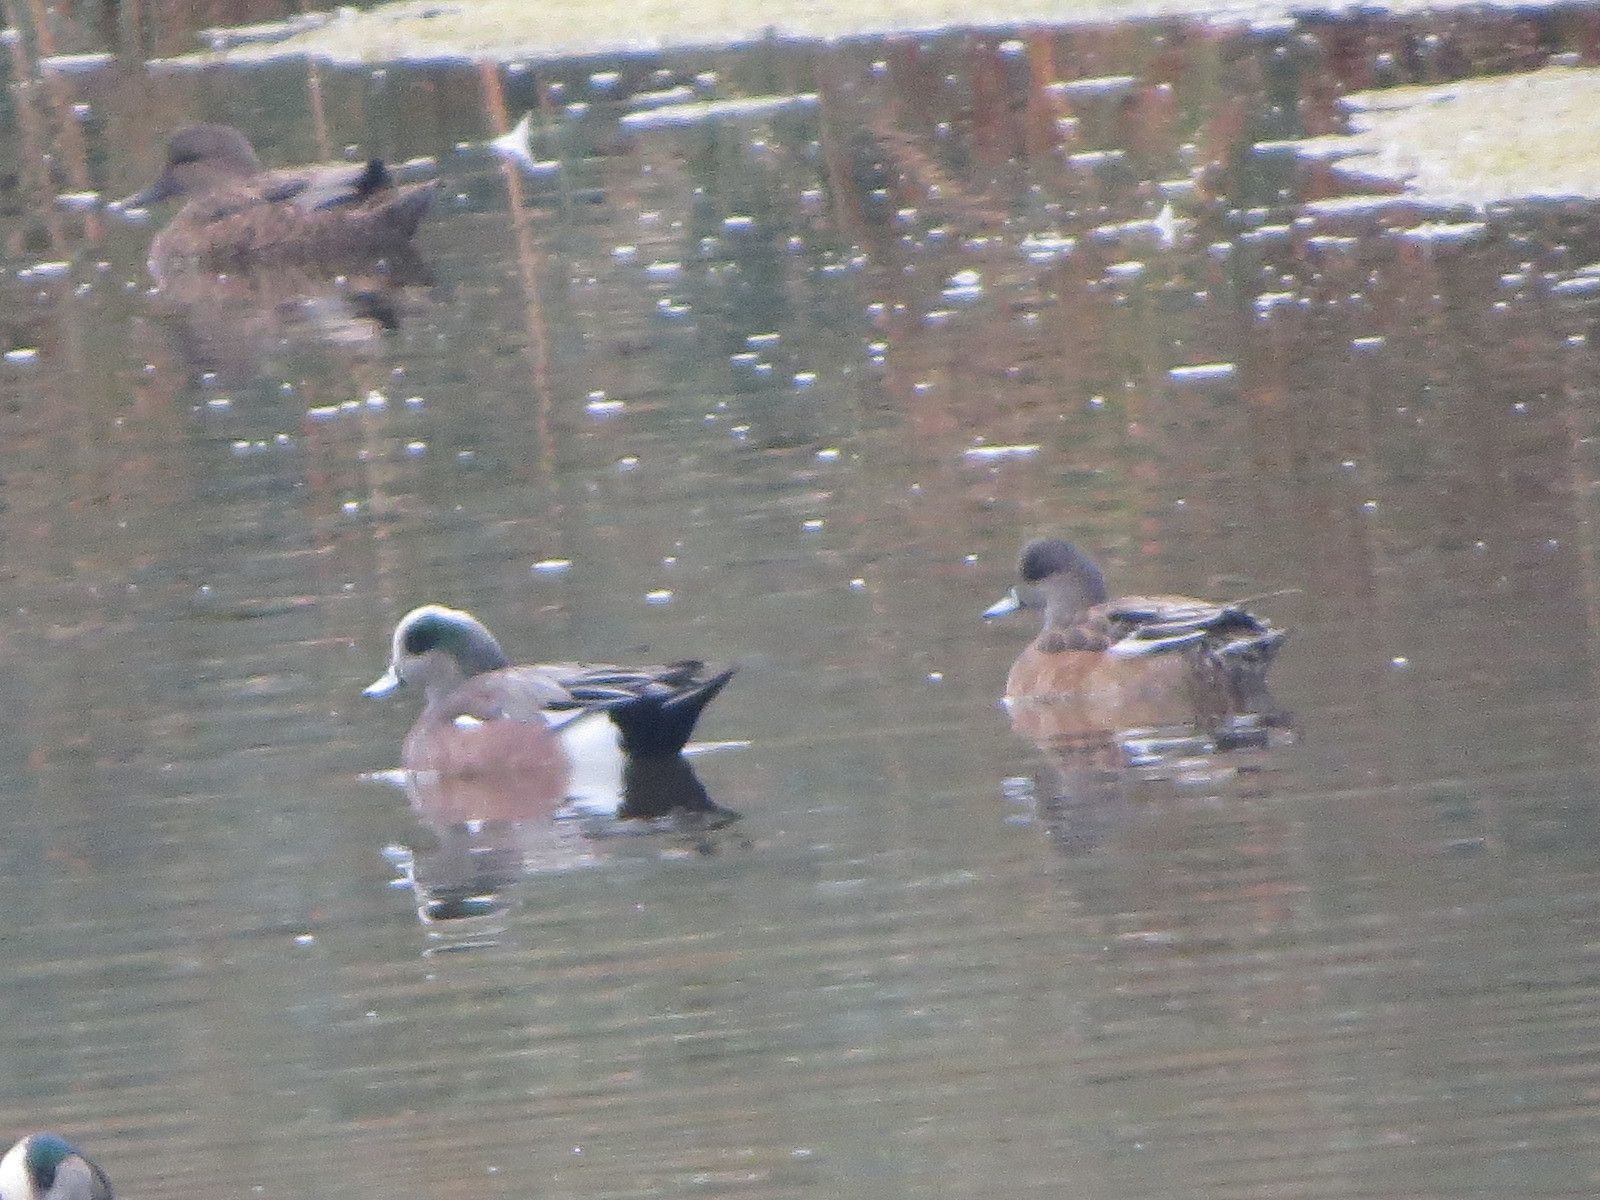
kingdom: Animalia
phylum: Chordata
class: Aves
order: Anseriformes
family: Anatidae
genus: Mareca
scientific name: Mareca americana
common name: American wigeon
